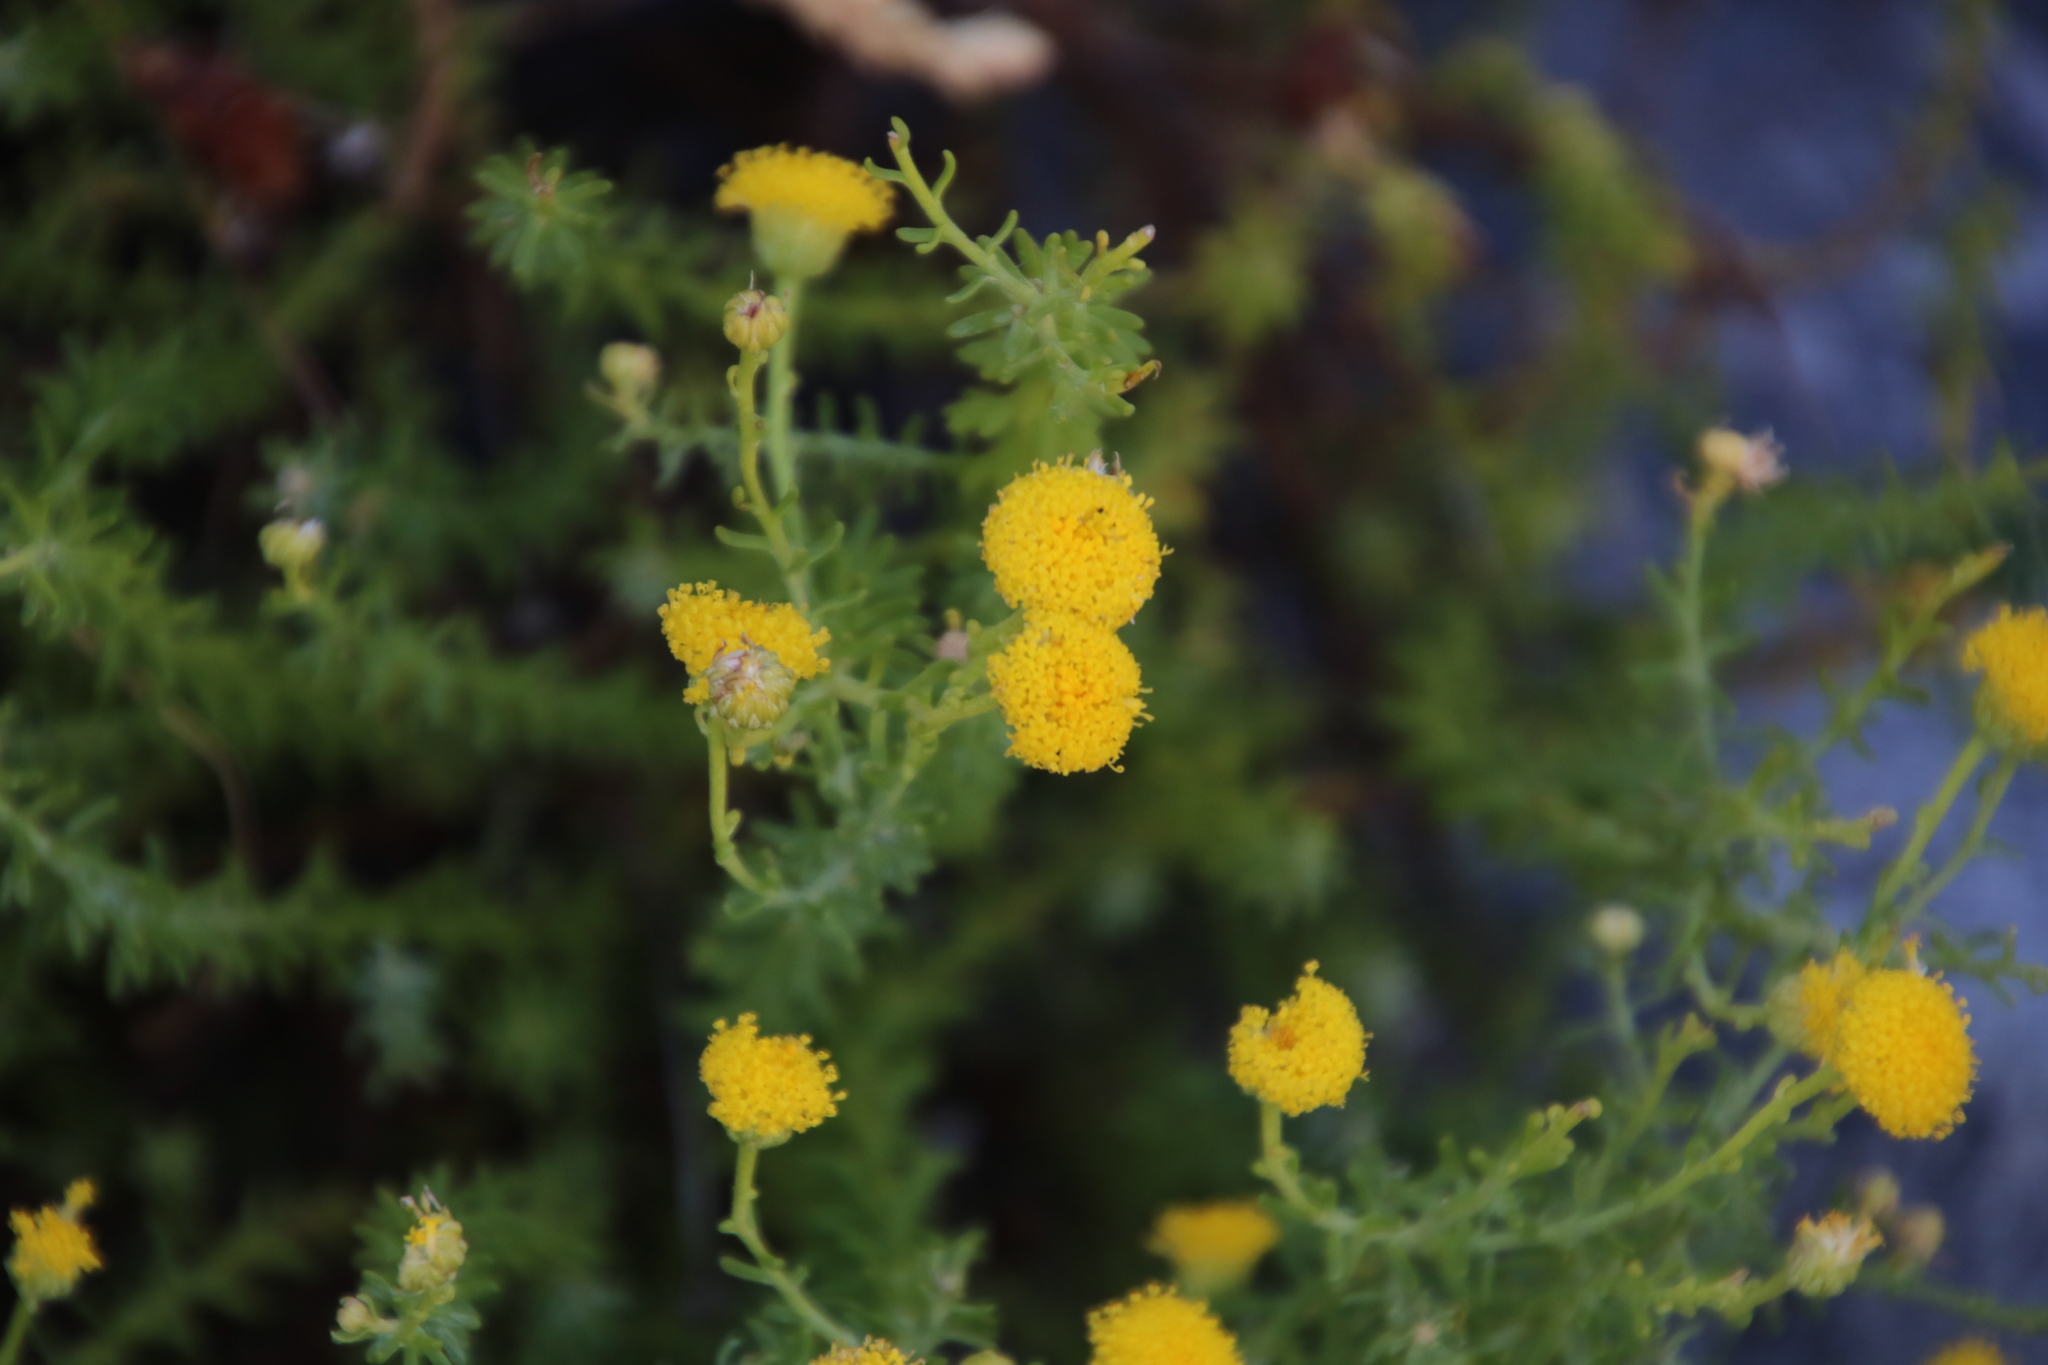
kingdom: Plantae
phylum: Tracheophyta
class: Magnoliopsida
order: Asterales
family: Asteraceae
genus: Chrysocoma
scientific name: Chrysocoma cernua
